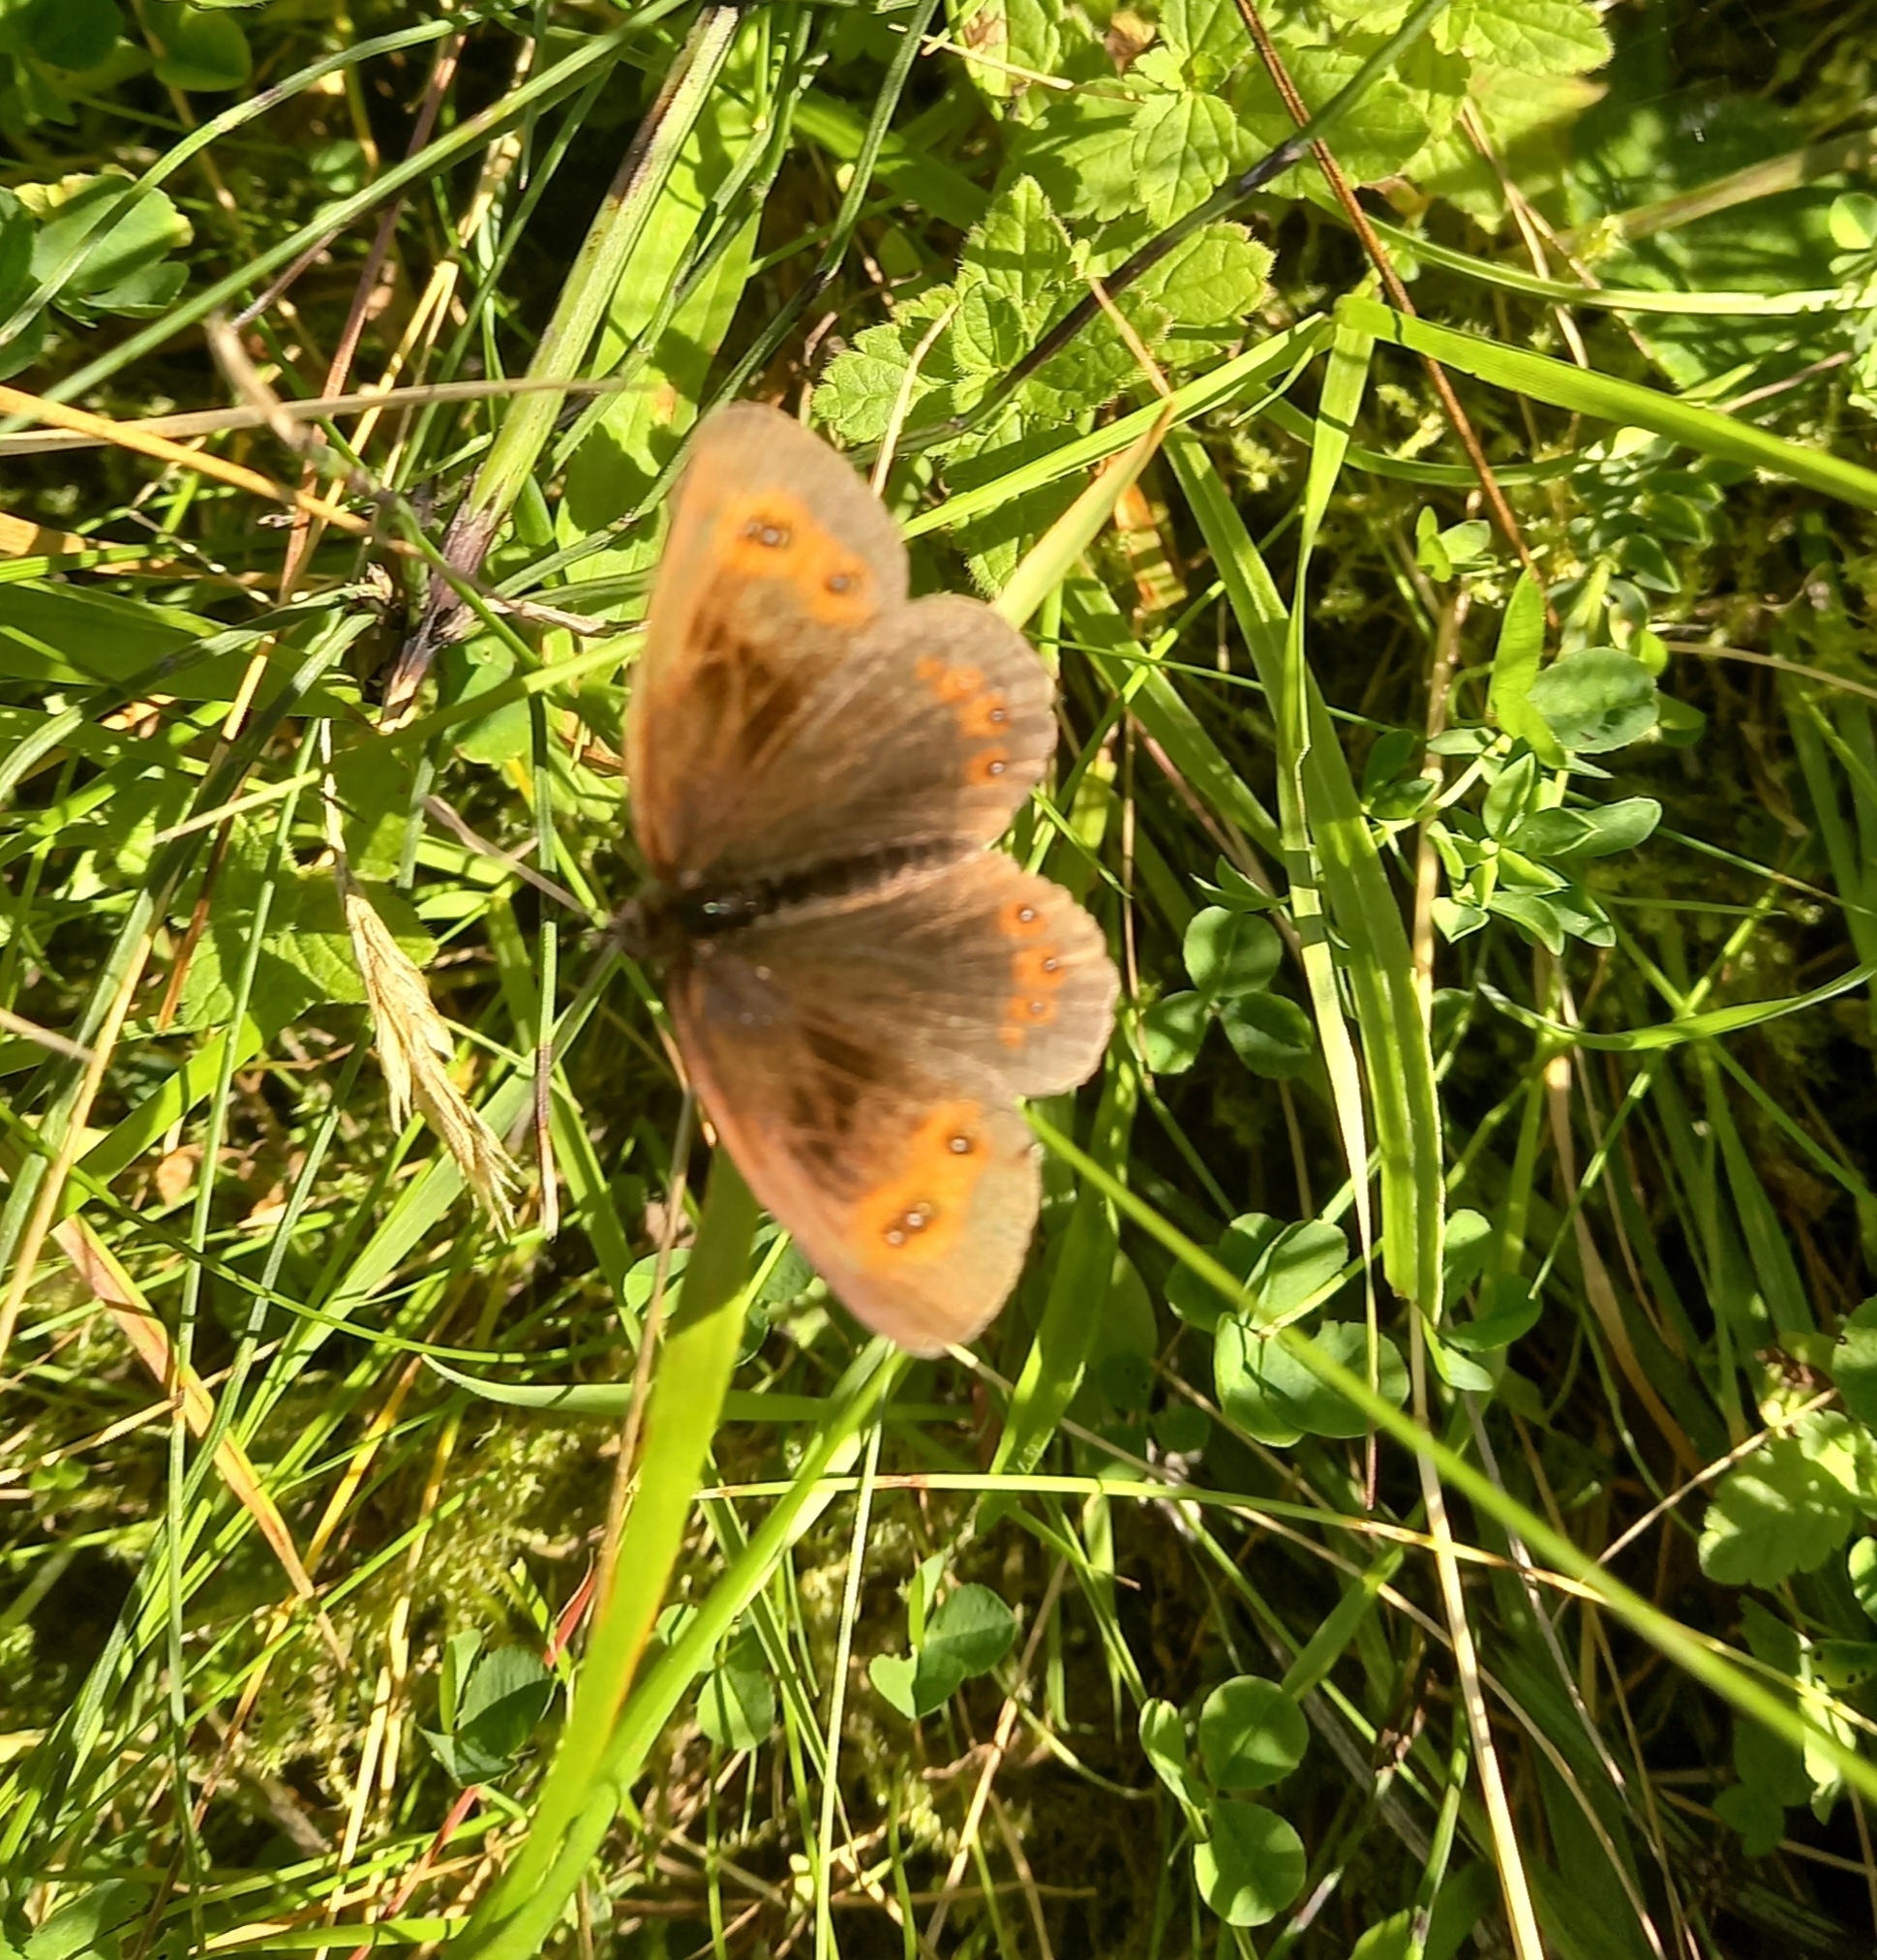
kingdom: Animalia
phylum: Arthropoda
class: Insecta
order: Lepidoptera
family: Nymphalidae
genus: Erebia
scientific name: Erebia aethiops
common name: Scotch argus
